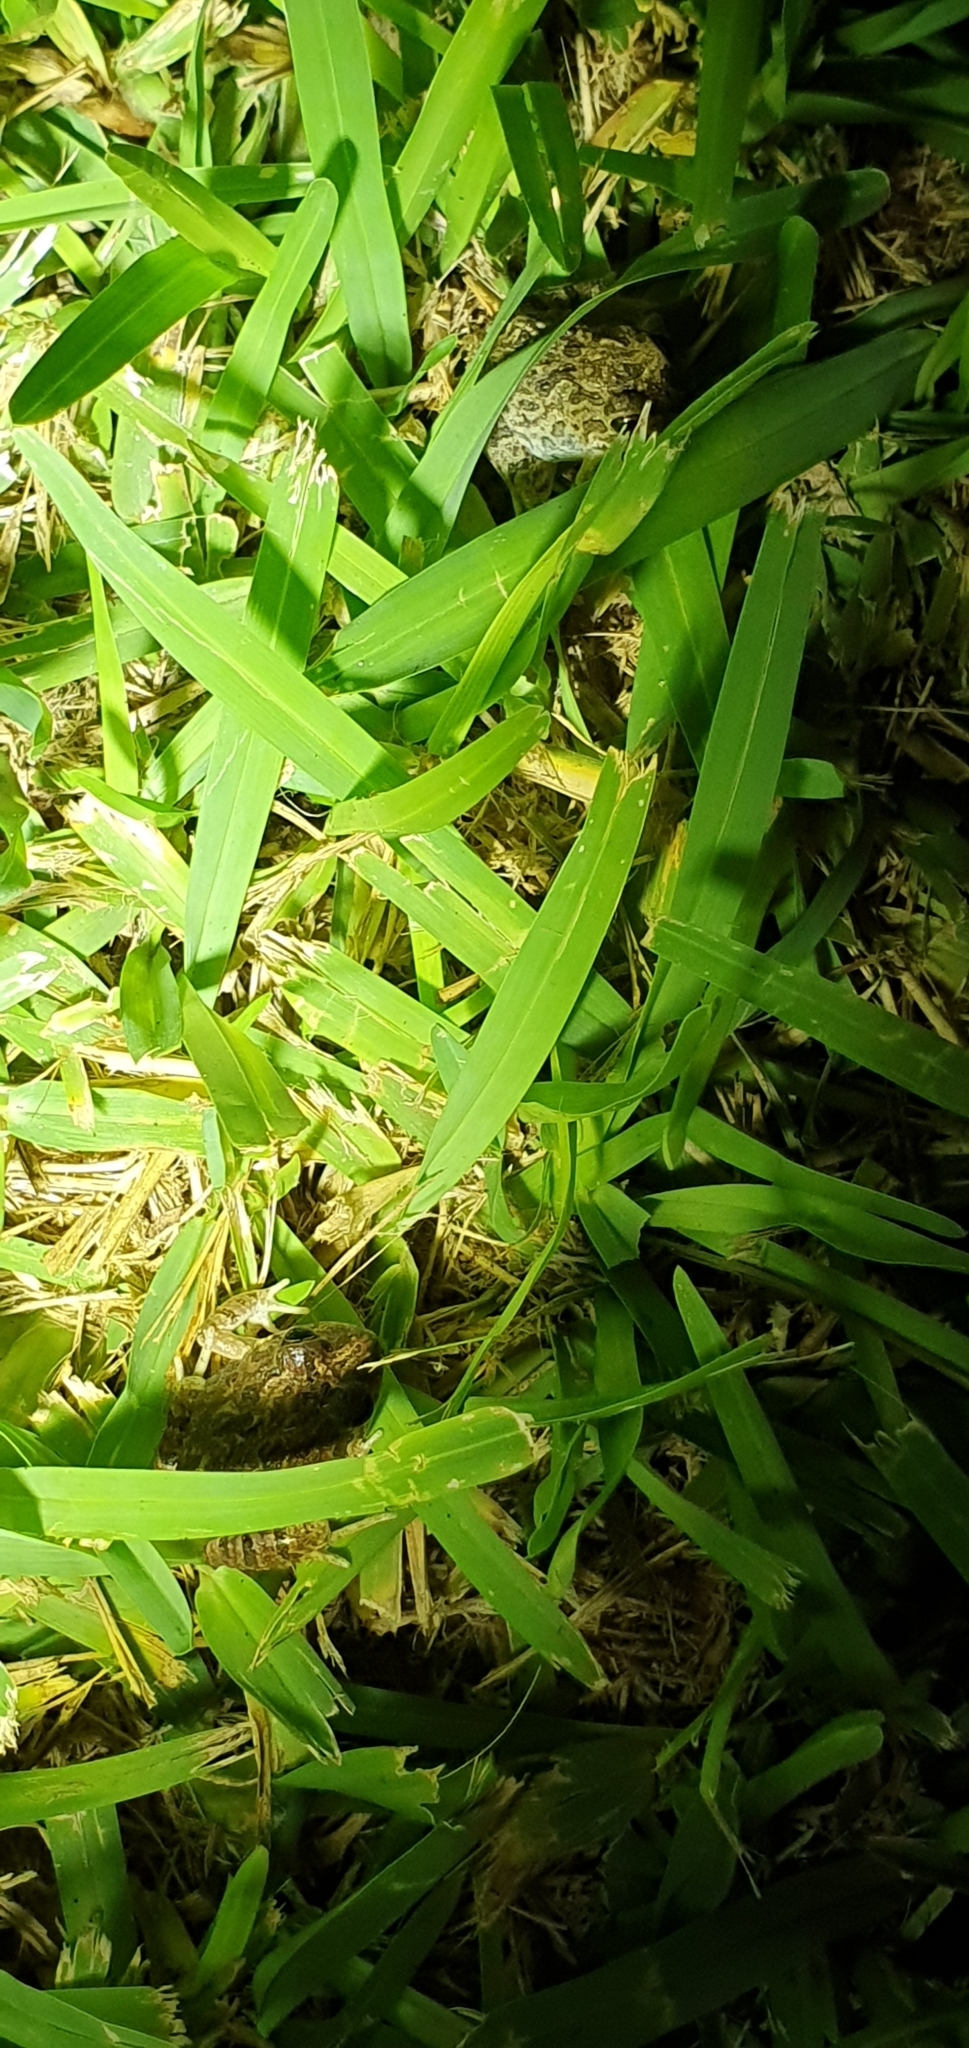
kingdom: Animalia
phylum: Chordata
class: Amphibia
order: Anura
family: Limnodynastidae
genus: Platyplectrum
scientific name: Platyplectrum ornatum
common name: Ornate burrowing frog
